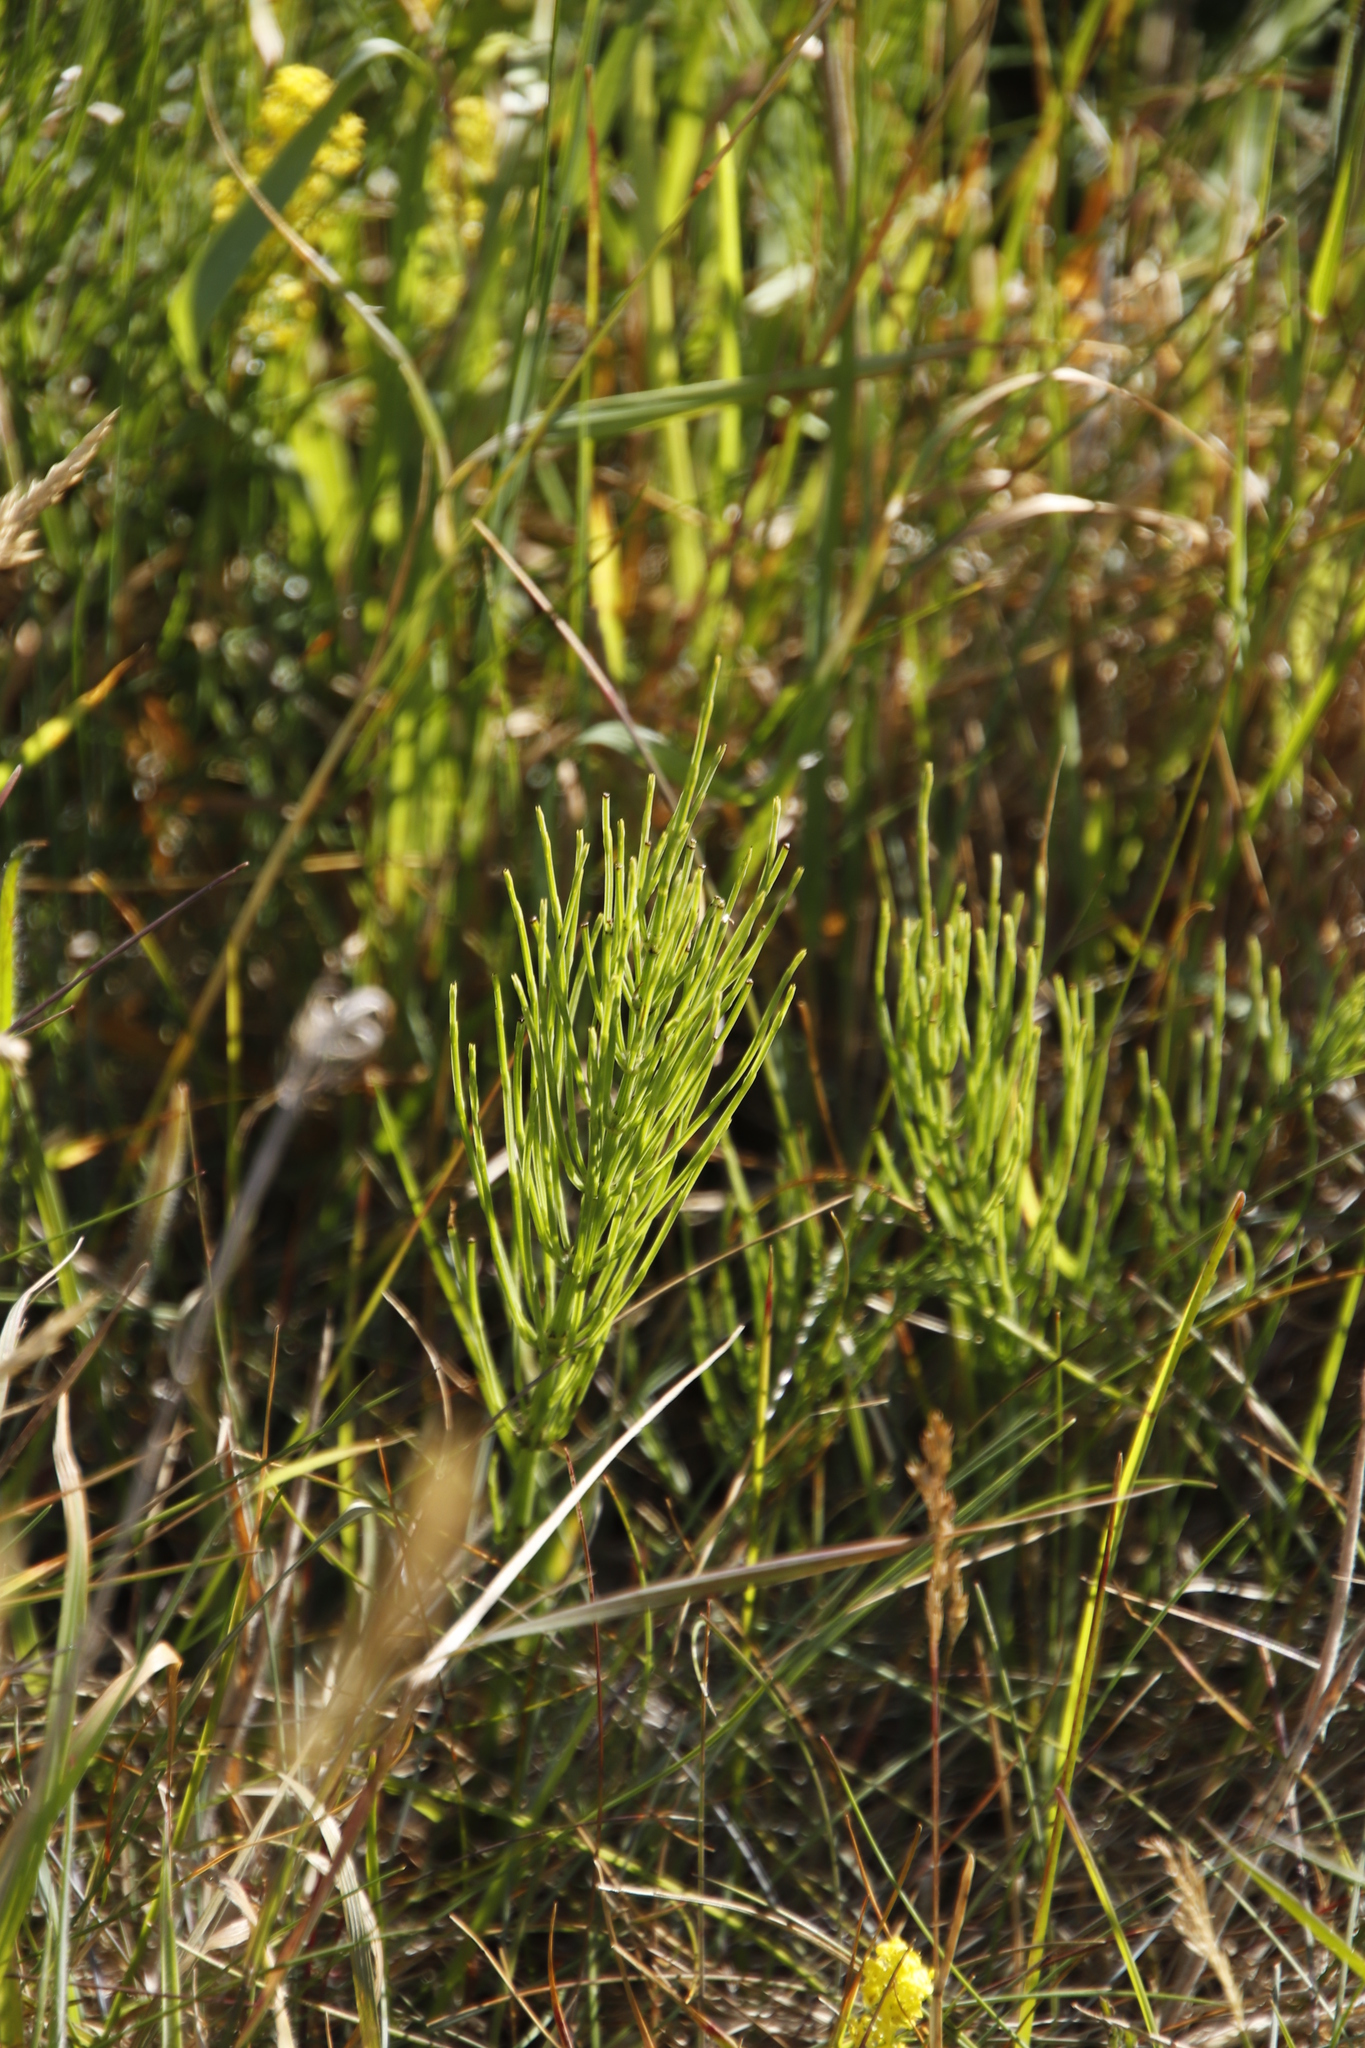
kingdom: Plantae
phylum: Tracheophyta
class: Polypodiopsida
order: Equisetales
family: Equisetaceae
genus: Equisetum
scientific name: Equisetum arvense
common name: Field horsetail
